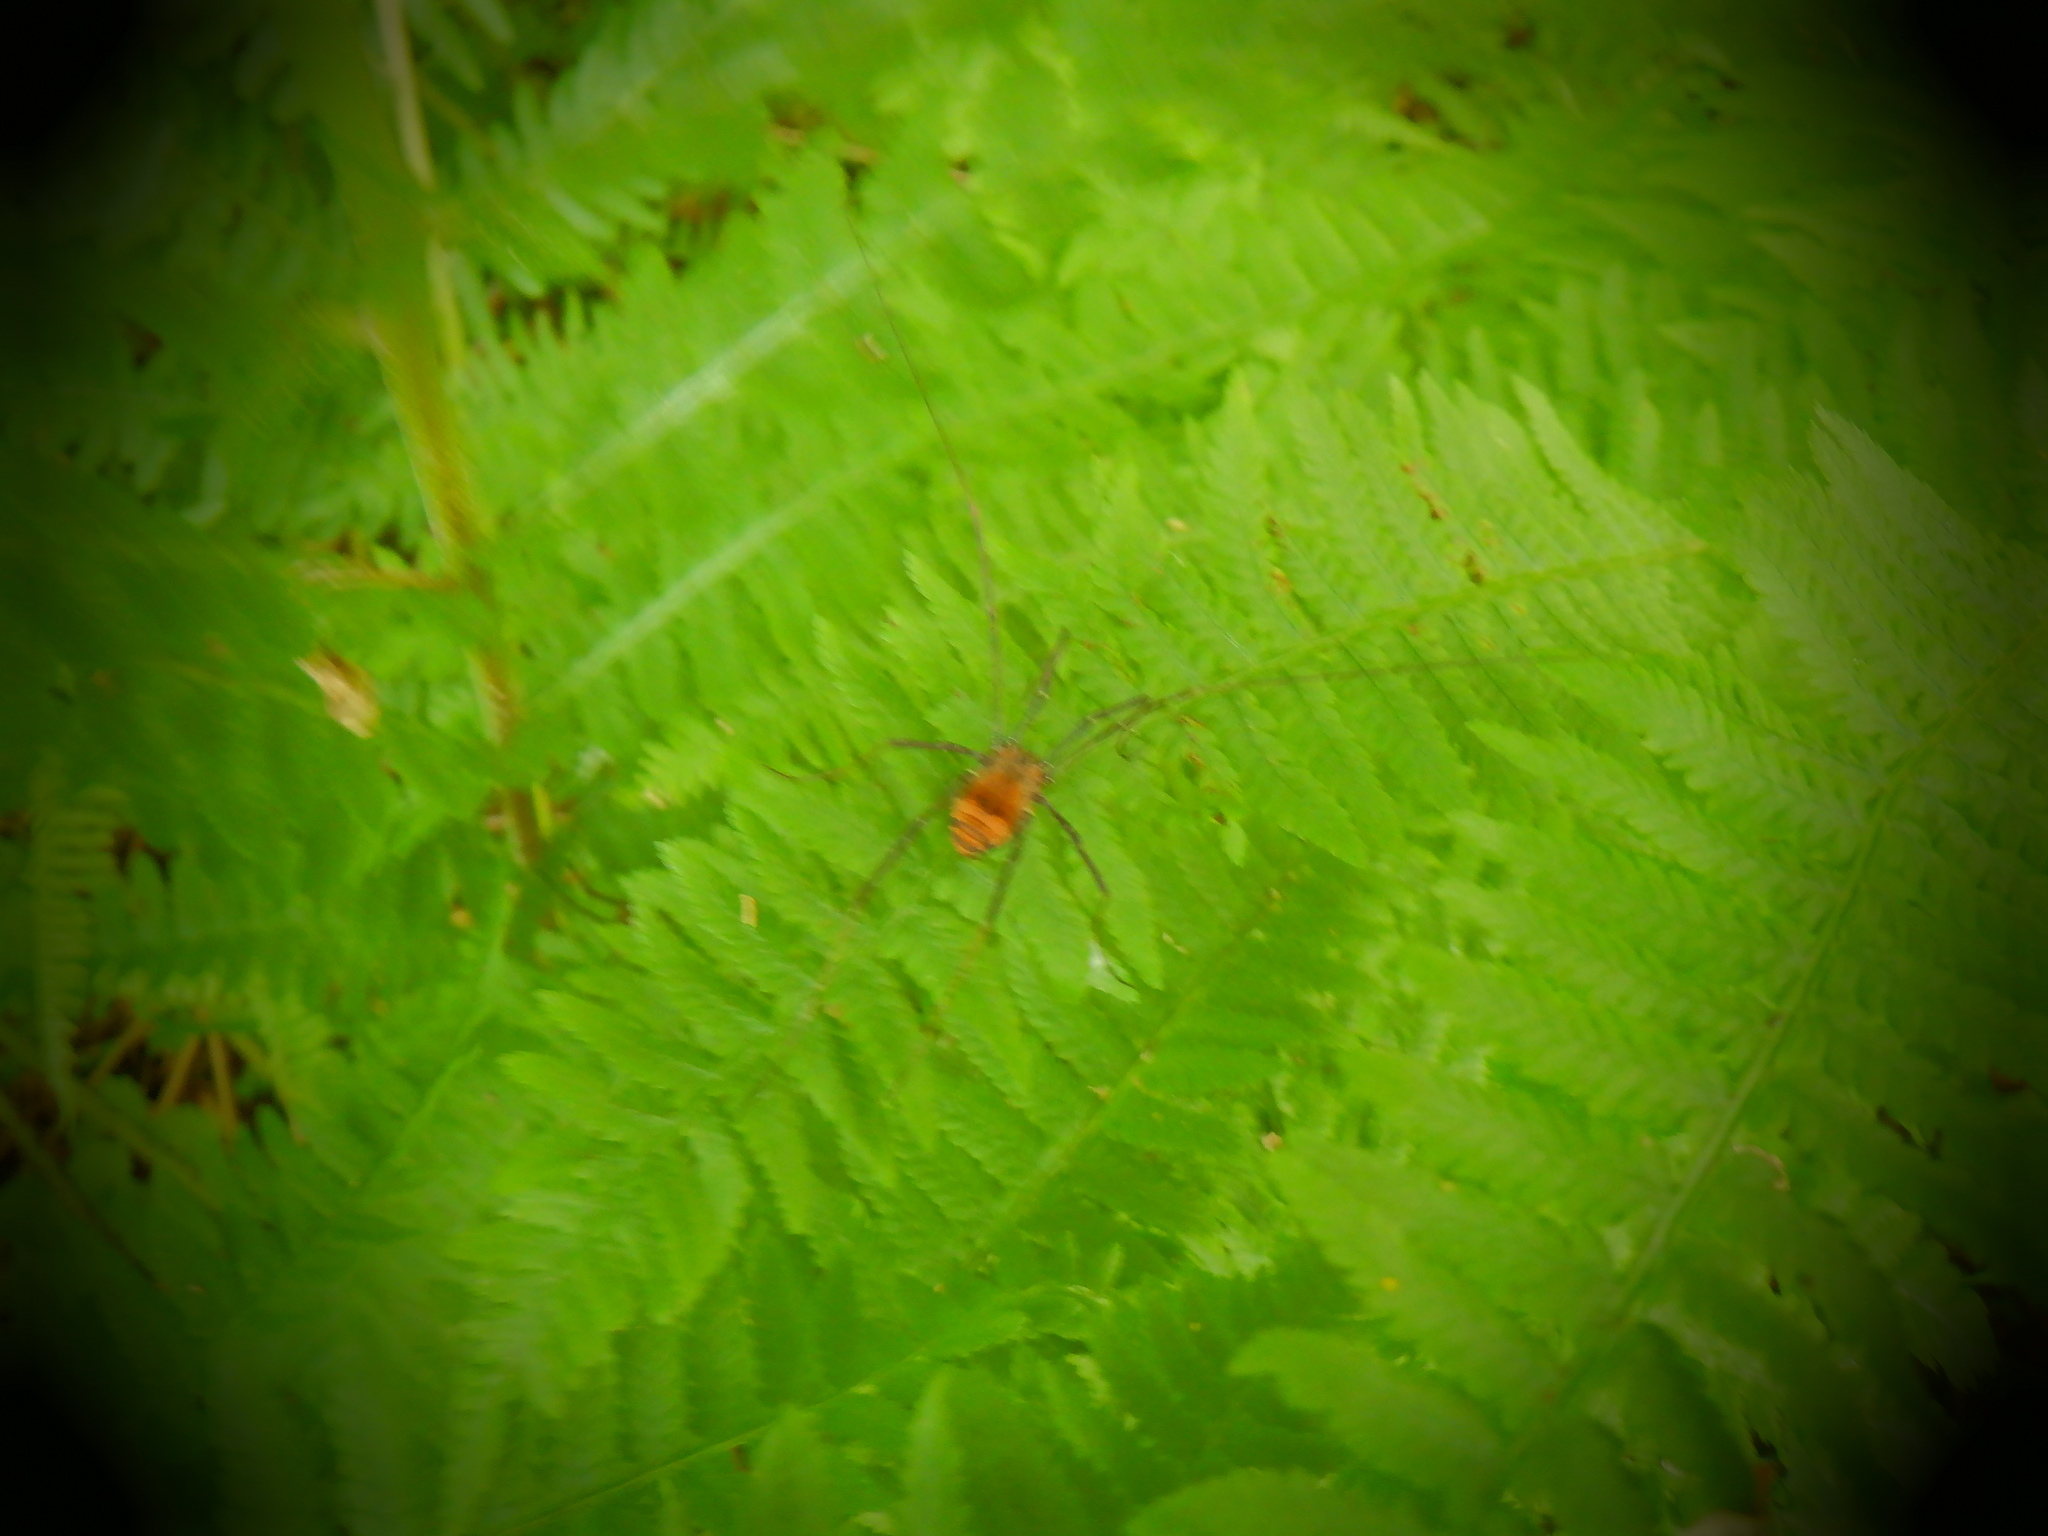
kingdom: Animalia
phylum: Arthropoda
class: Arachnida
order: Opiliones
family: Sclerosomatidae
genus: Leiobunum
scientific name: Leiobunum verrucosum
